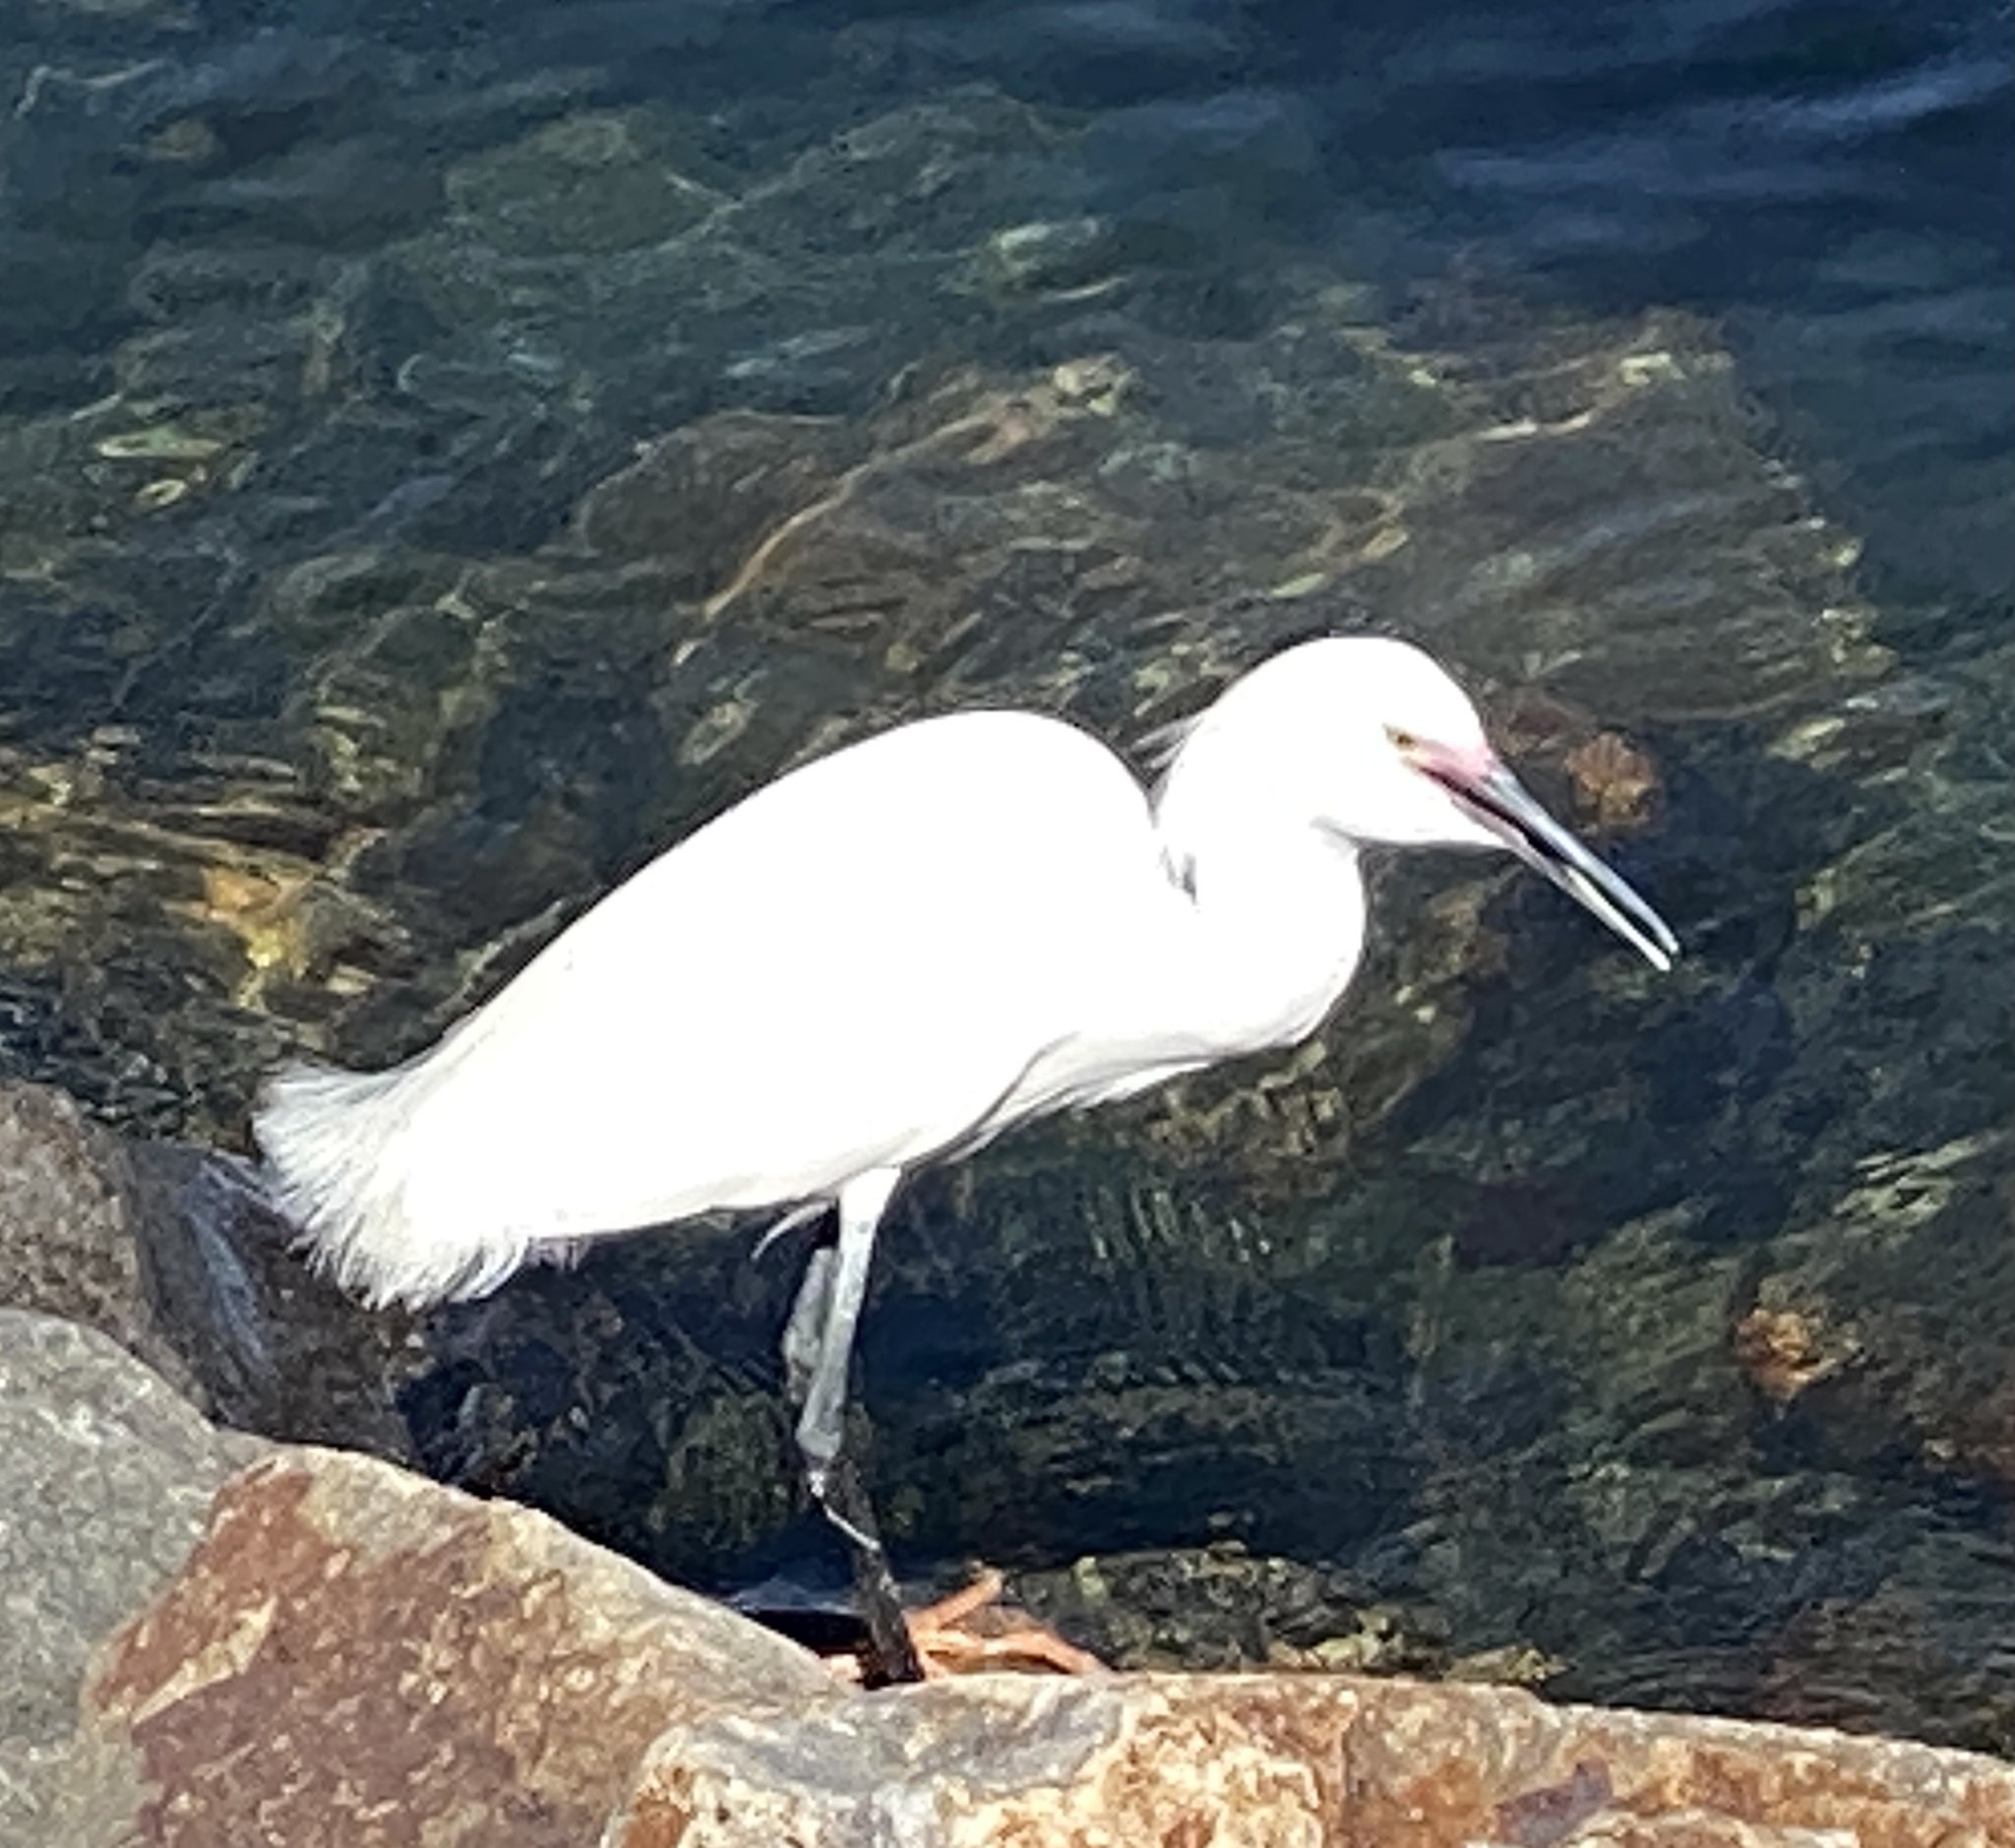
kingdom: Animalia
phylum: Chordata
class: Aves
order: Pelecaniformes
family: Ardeidae
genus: Egretta
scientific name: Egretta thula
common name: Snowy egret
